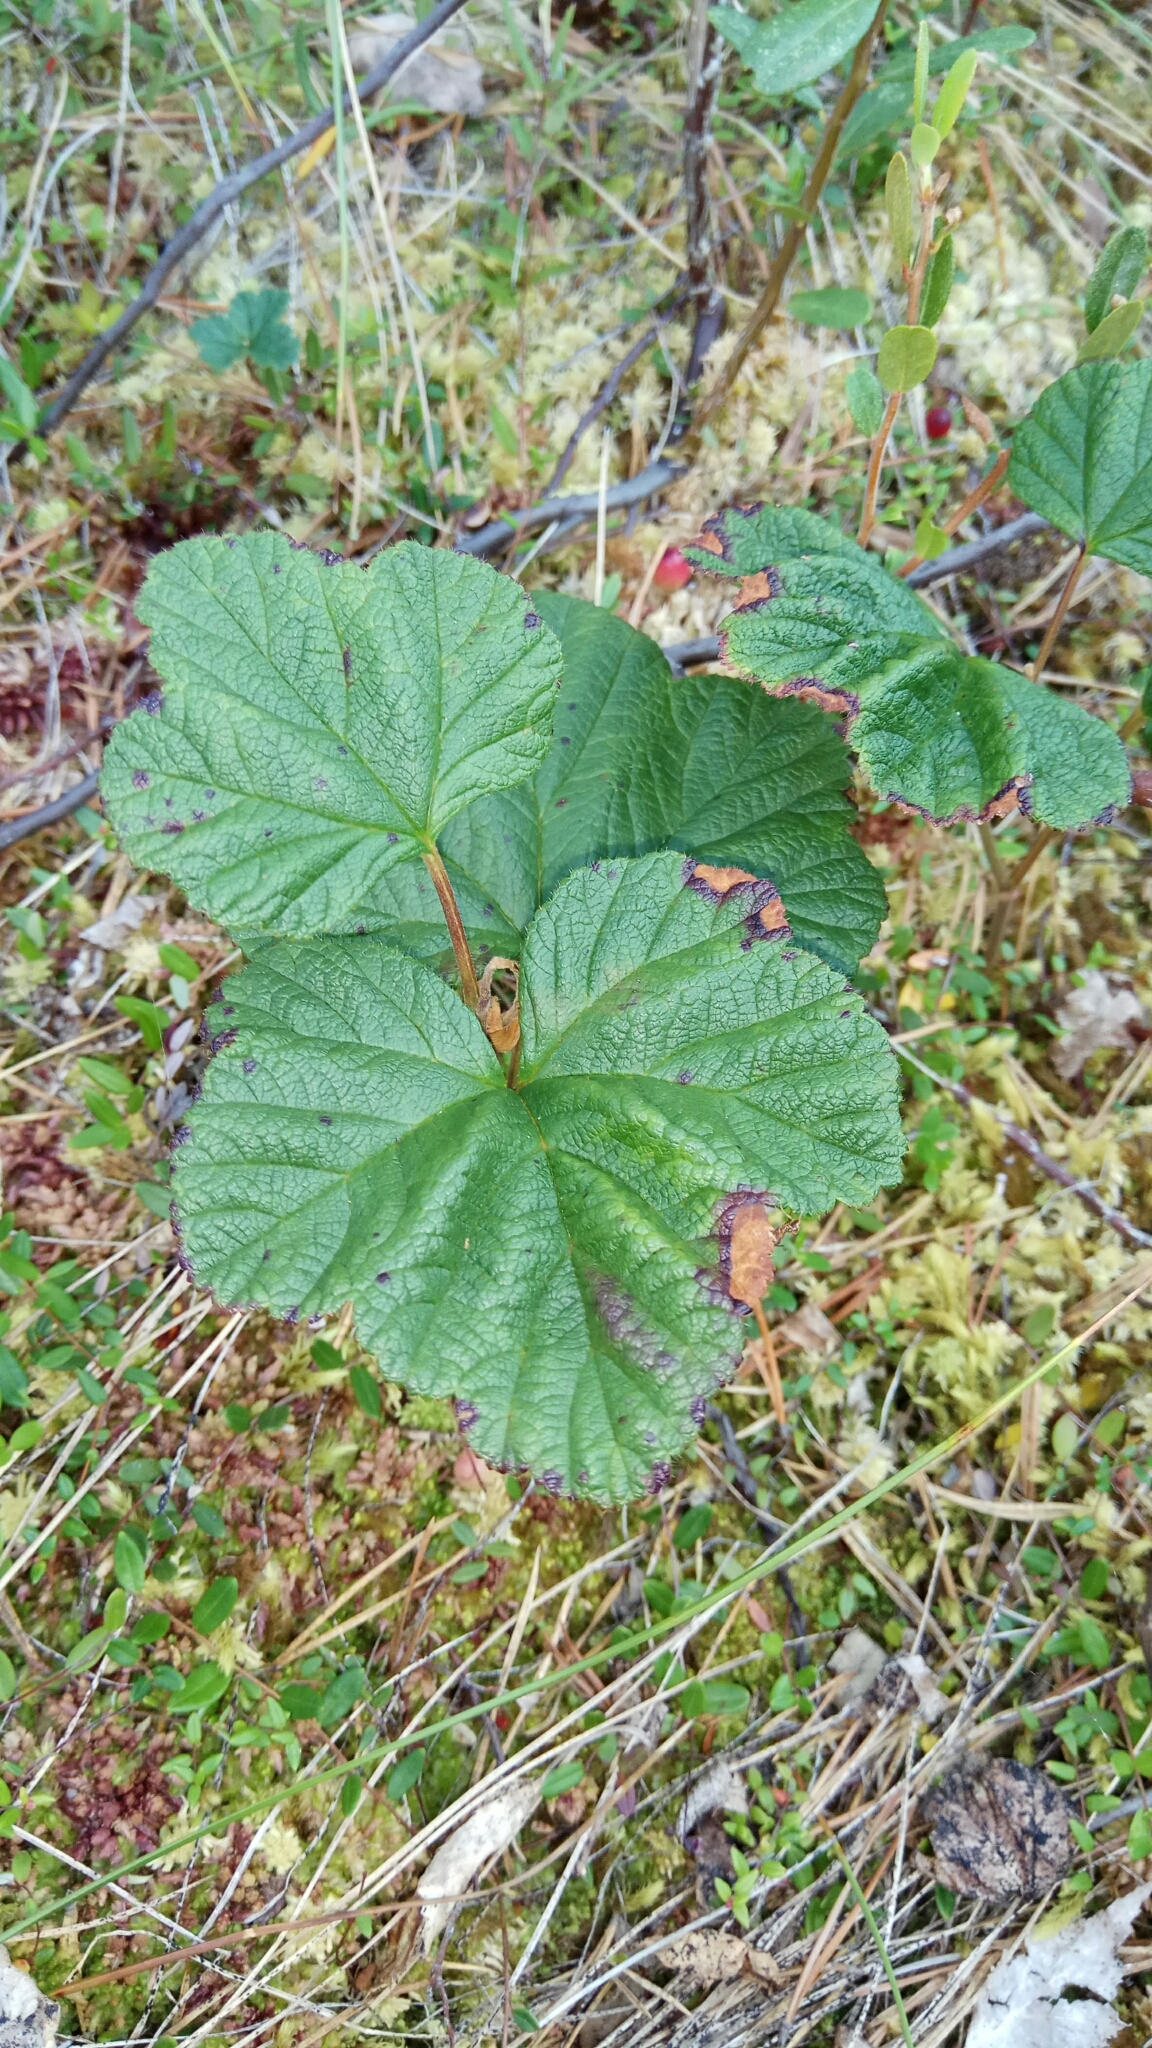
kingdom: Plantae
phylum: Tracheophyta
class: Magnoliopsida
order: Rosales
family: Rosaceae
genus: Rubus
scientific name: Rubus chamaemorus
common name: Cloudberry
